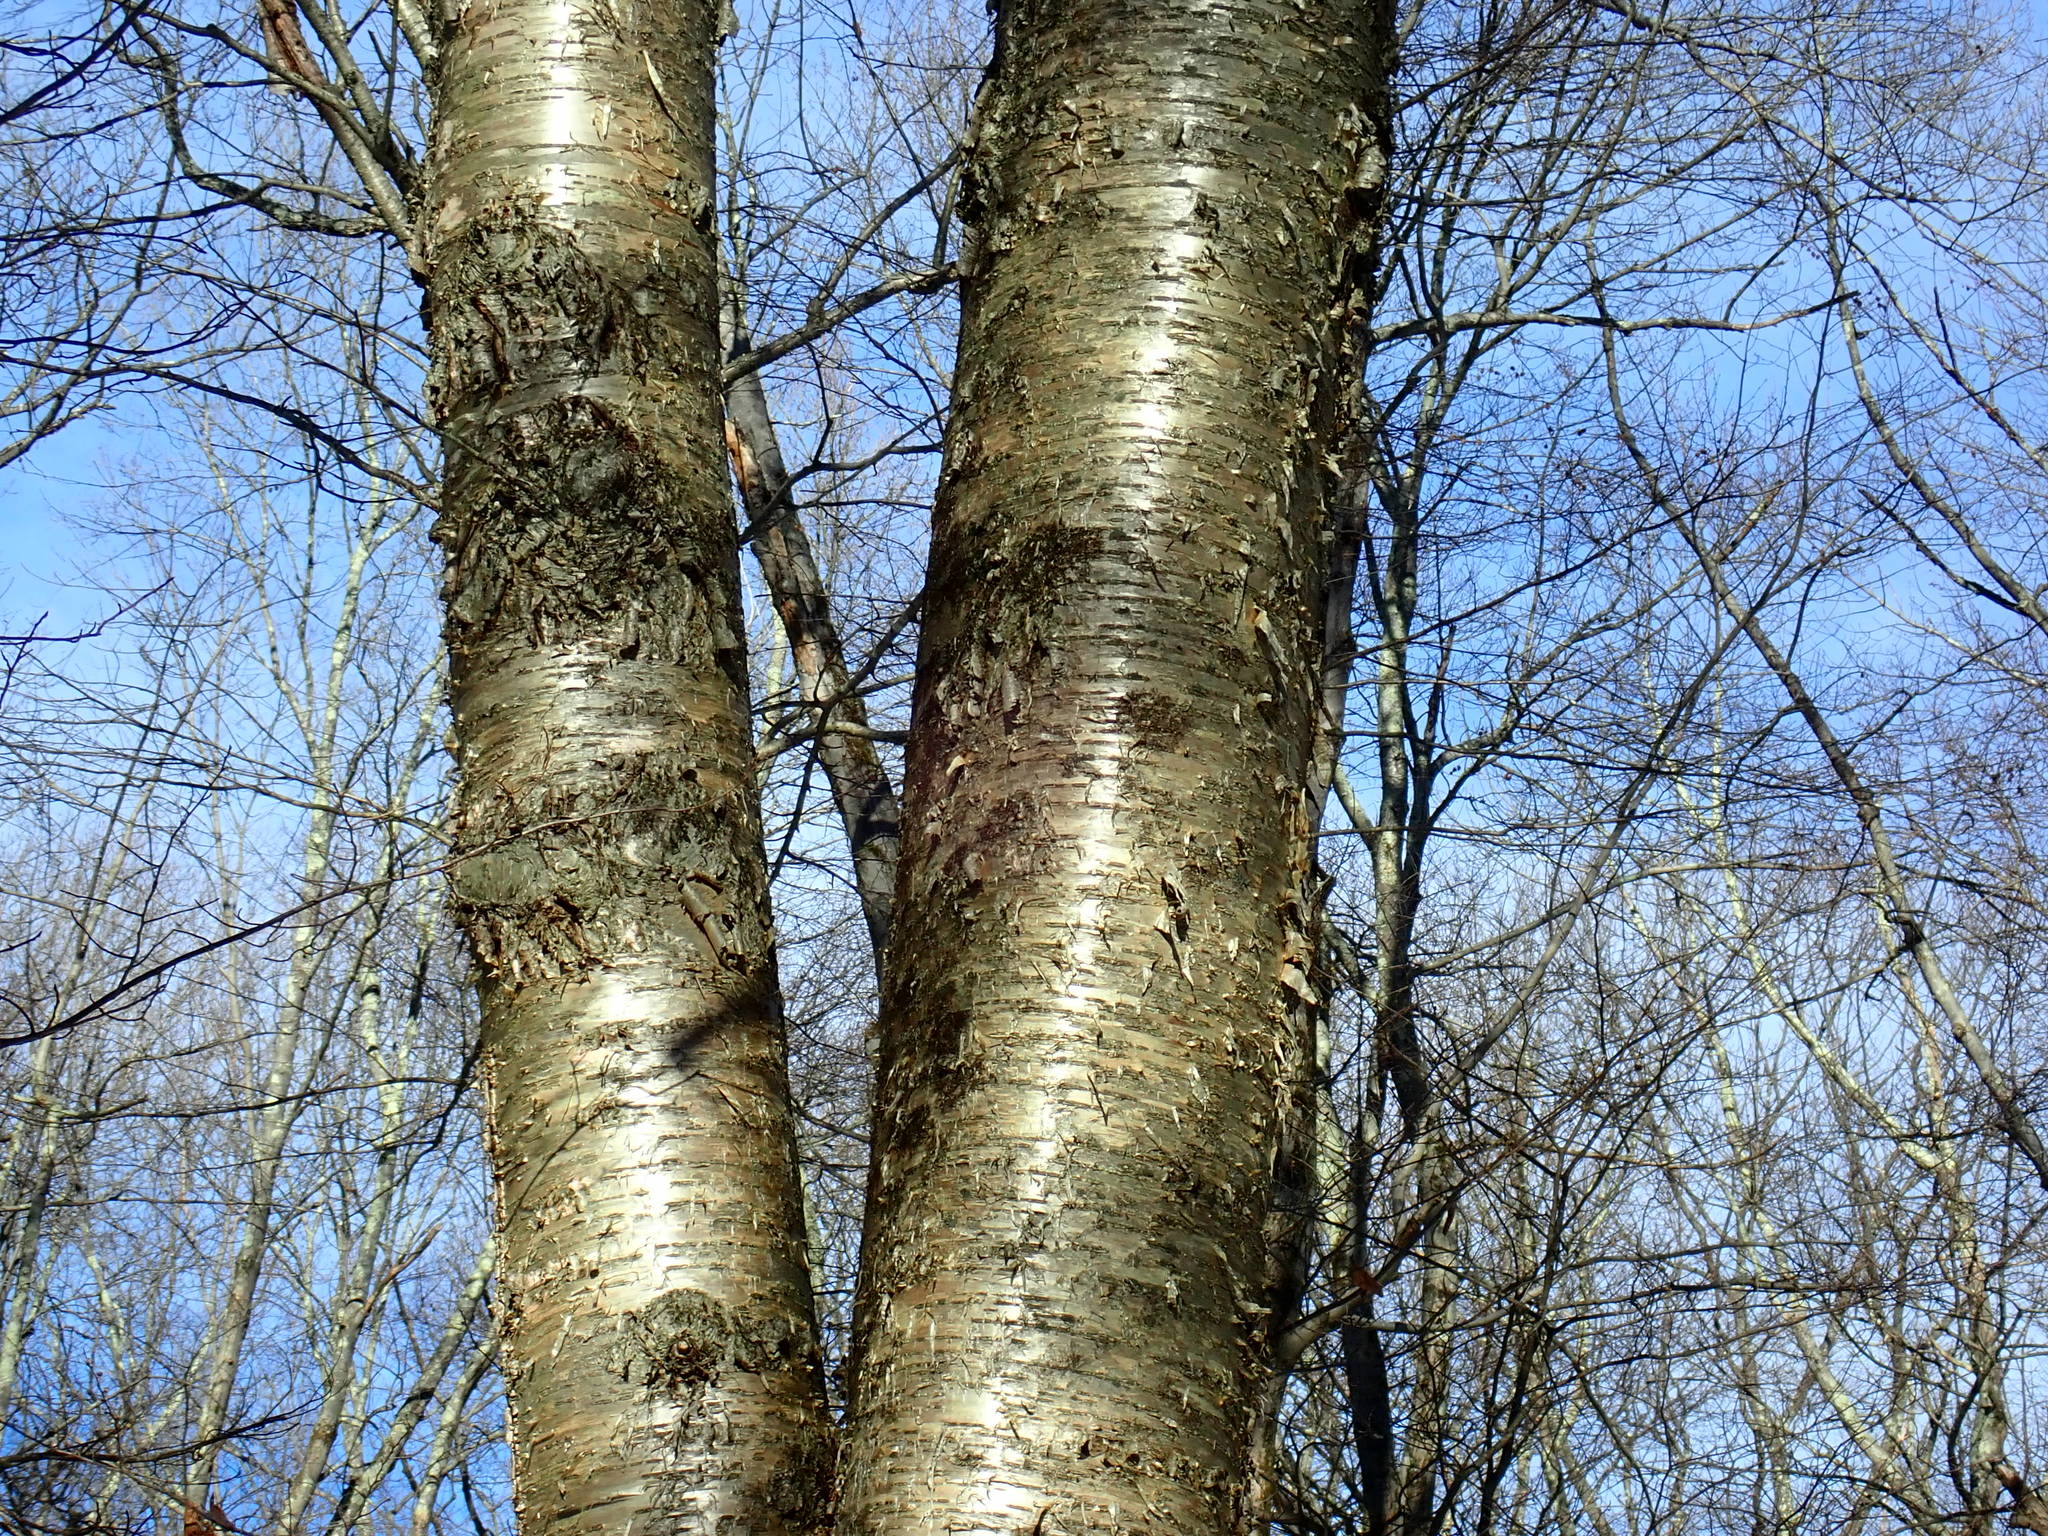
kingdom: Plantae
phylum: Tracheophyta
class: Magnoliopsida
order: Fagales
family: Betulaceae
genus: Betula
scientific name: Betula alleghaniensis
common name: Yellow birch
